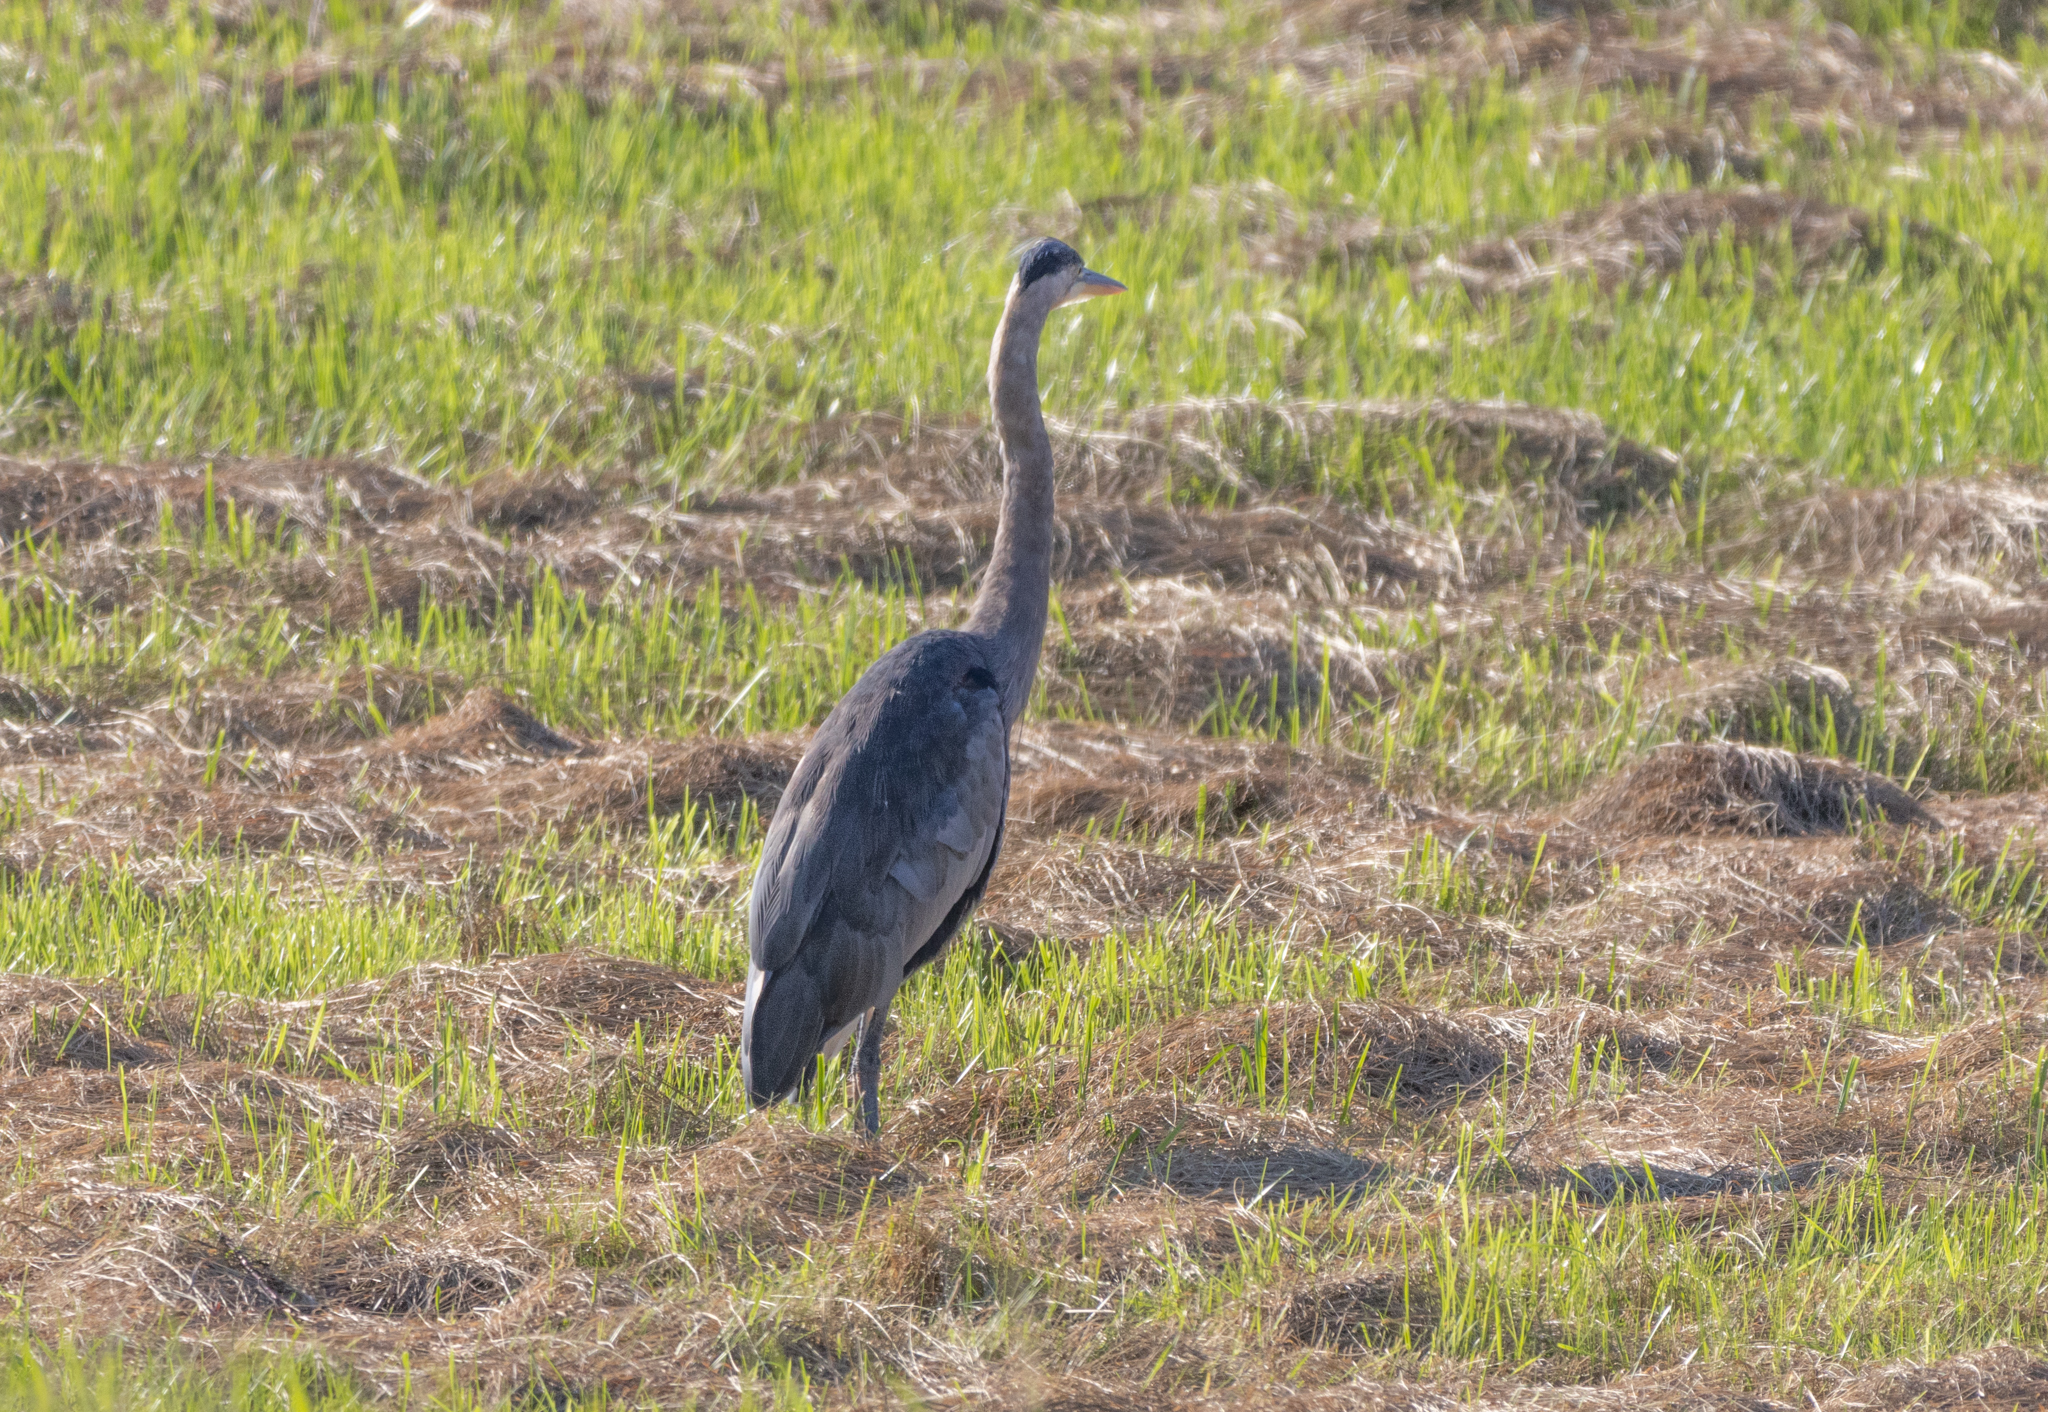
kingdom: Animalia
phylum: Chordata
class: Aves
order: Pelecaniformes
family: Ardeidae
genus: Ardea
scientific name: Ardea herodias
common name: Great blue heron
